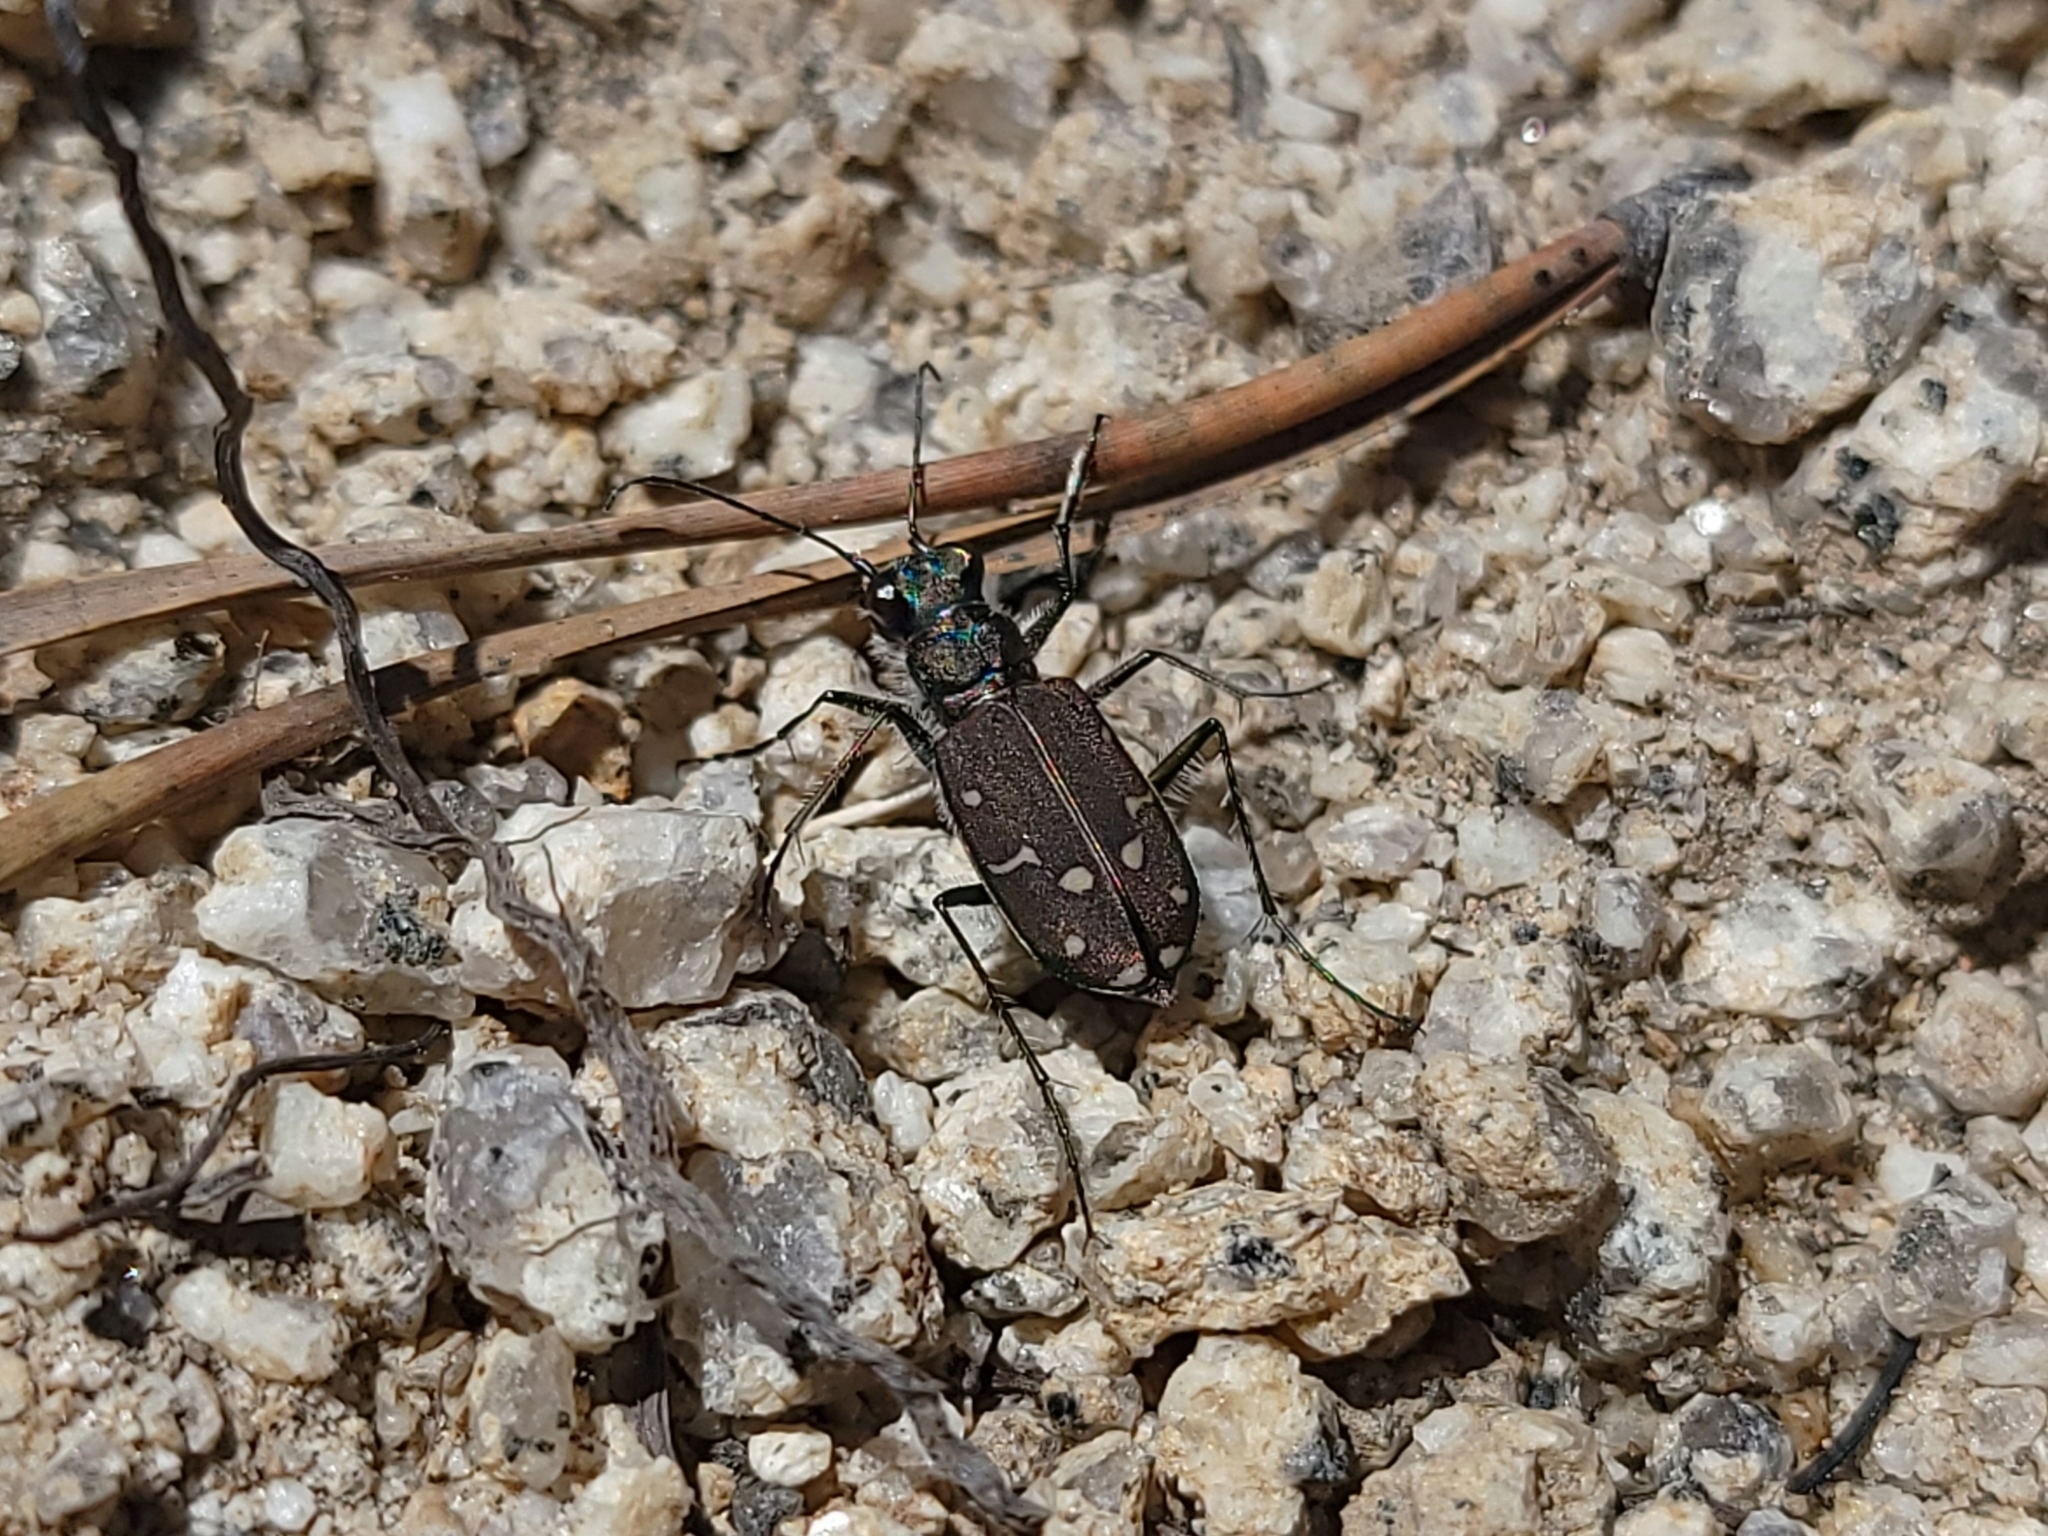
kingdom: Animalia
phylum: Arthropoda
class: Insecta
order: Coleoptera
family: Carabidae
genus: Cicindela
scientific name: Cicindela oregona
